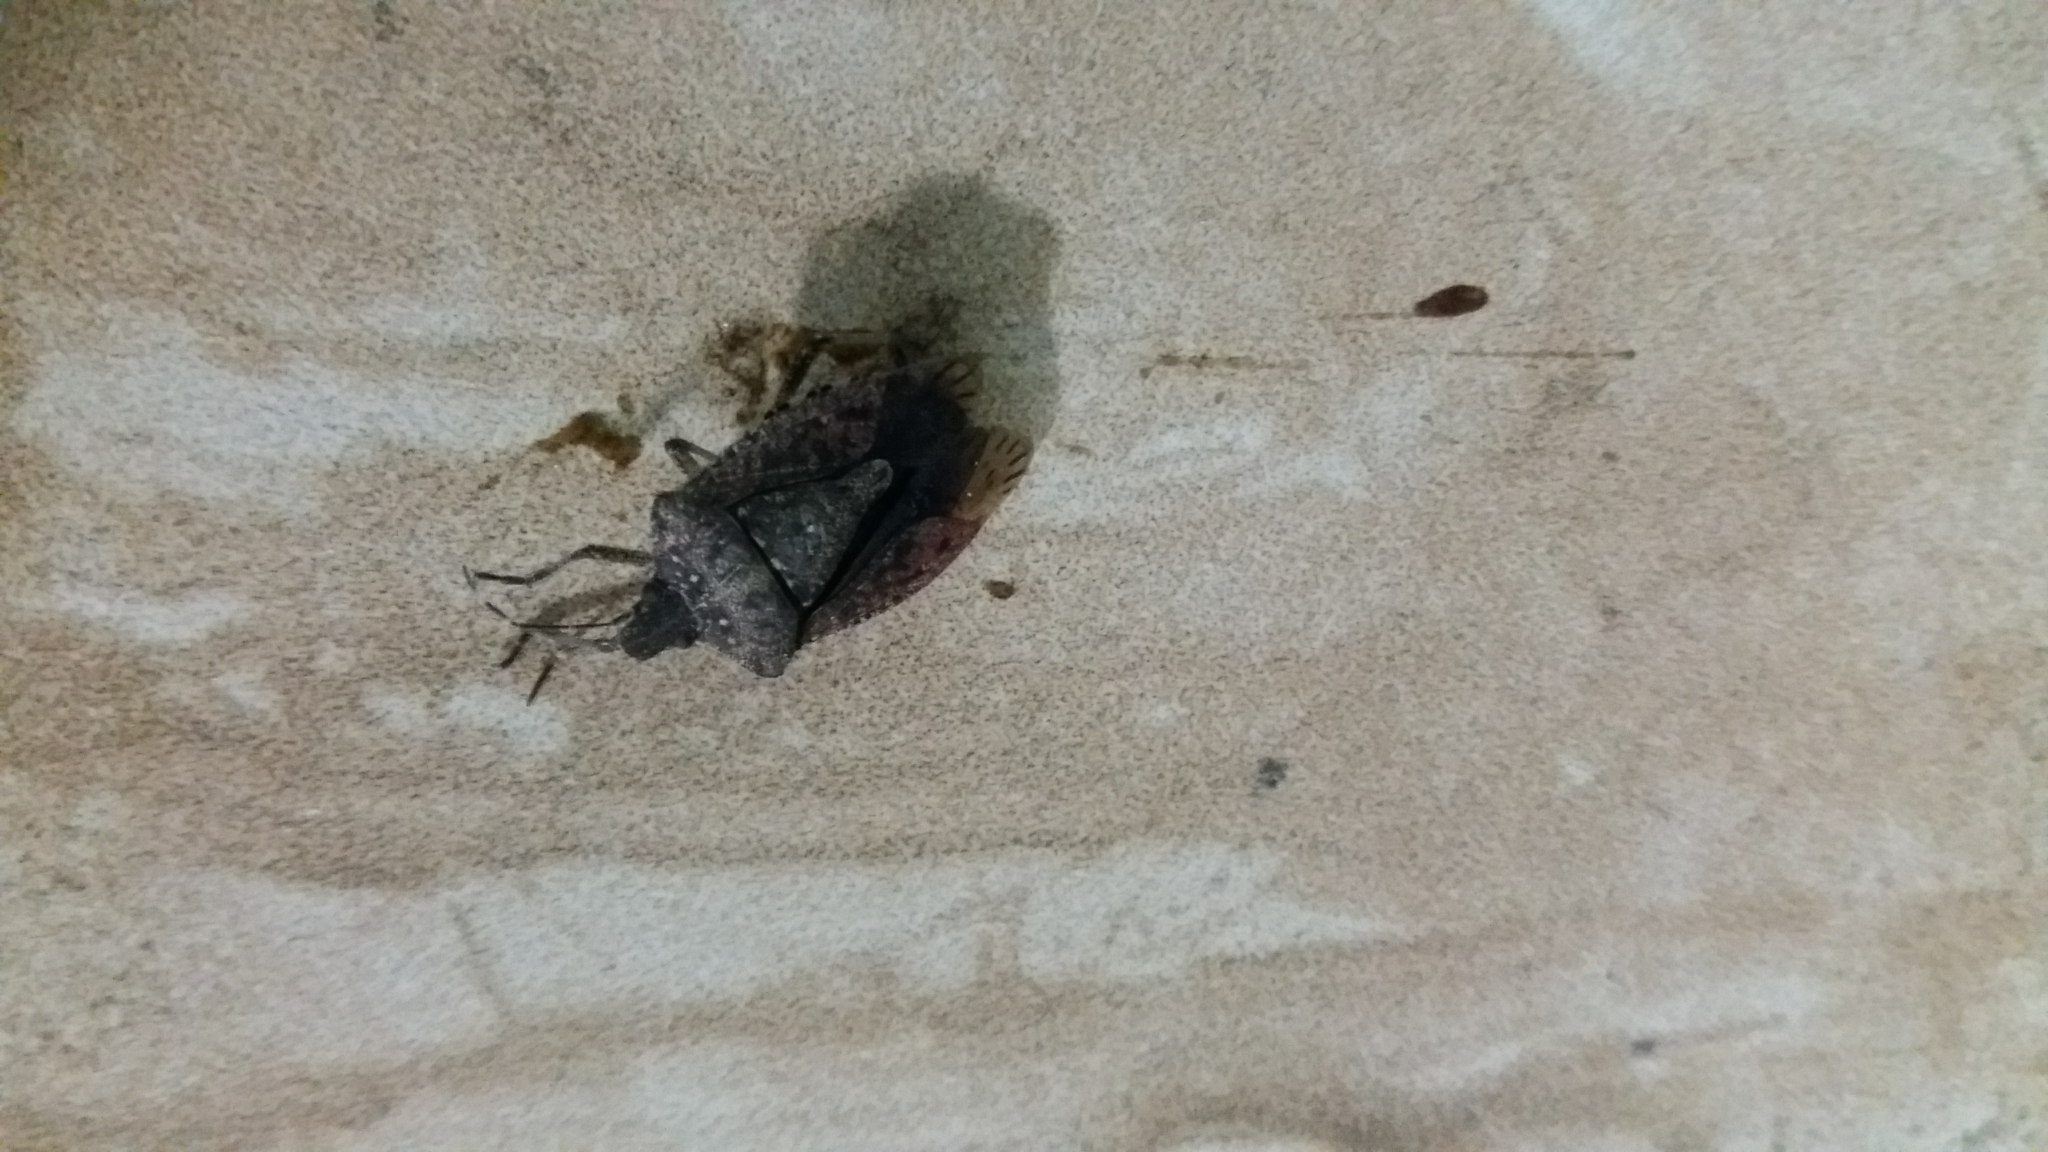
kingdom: Animalia
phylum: Arthropoda
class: Insecta
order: Hemiptera
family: Pentatomidae
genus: Halyomorpha
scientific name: Halyomorpha halys
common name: Brown marmorated stink bug
